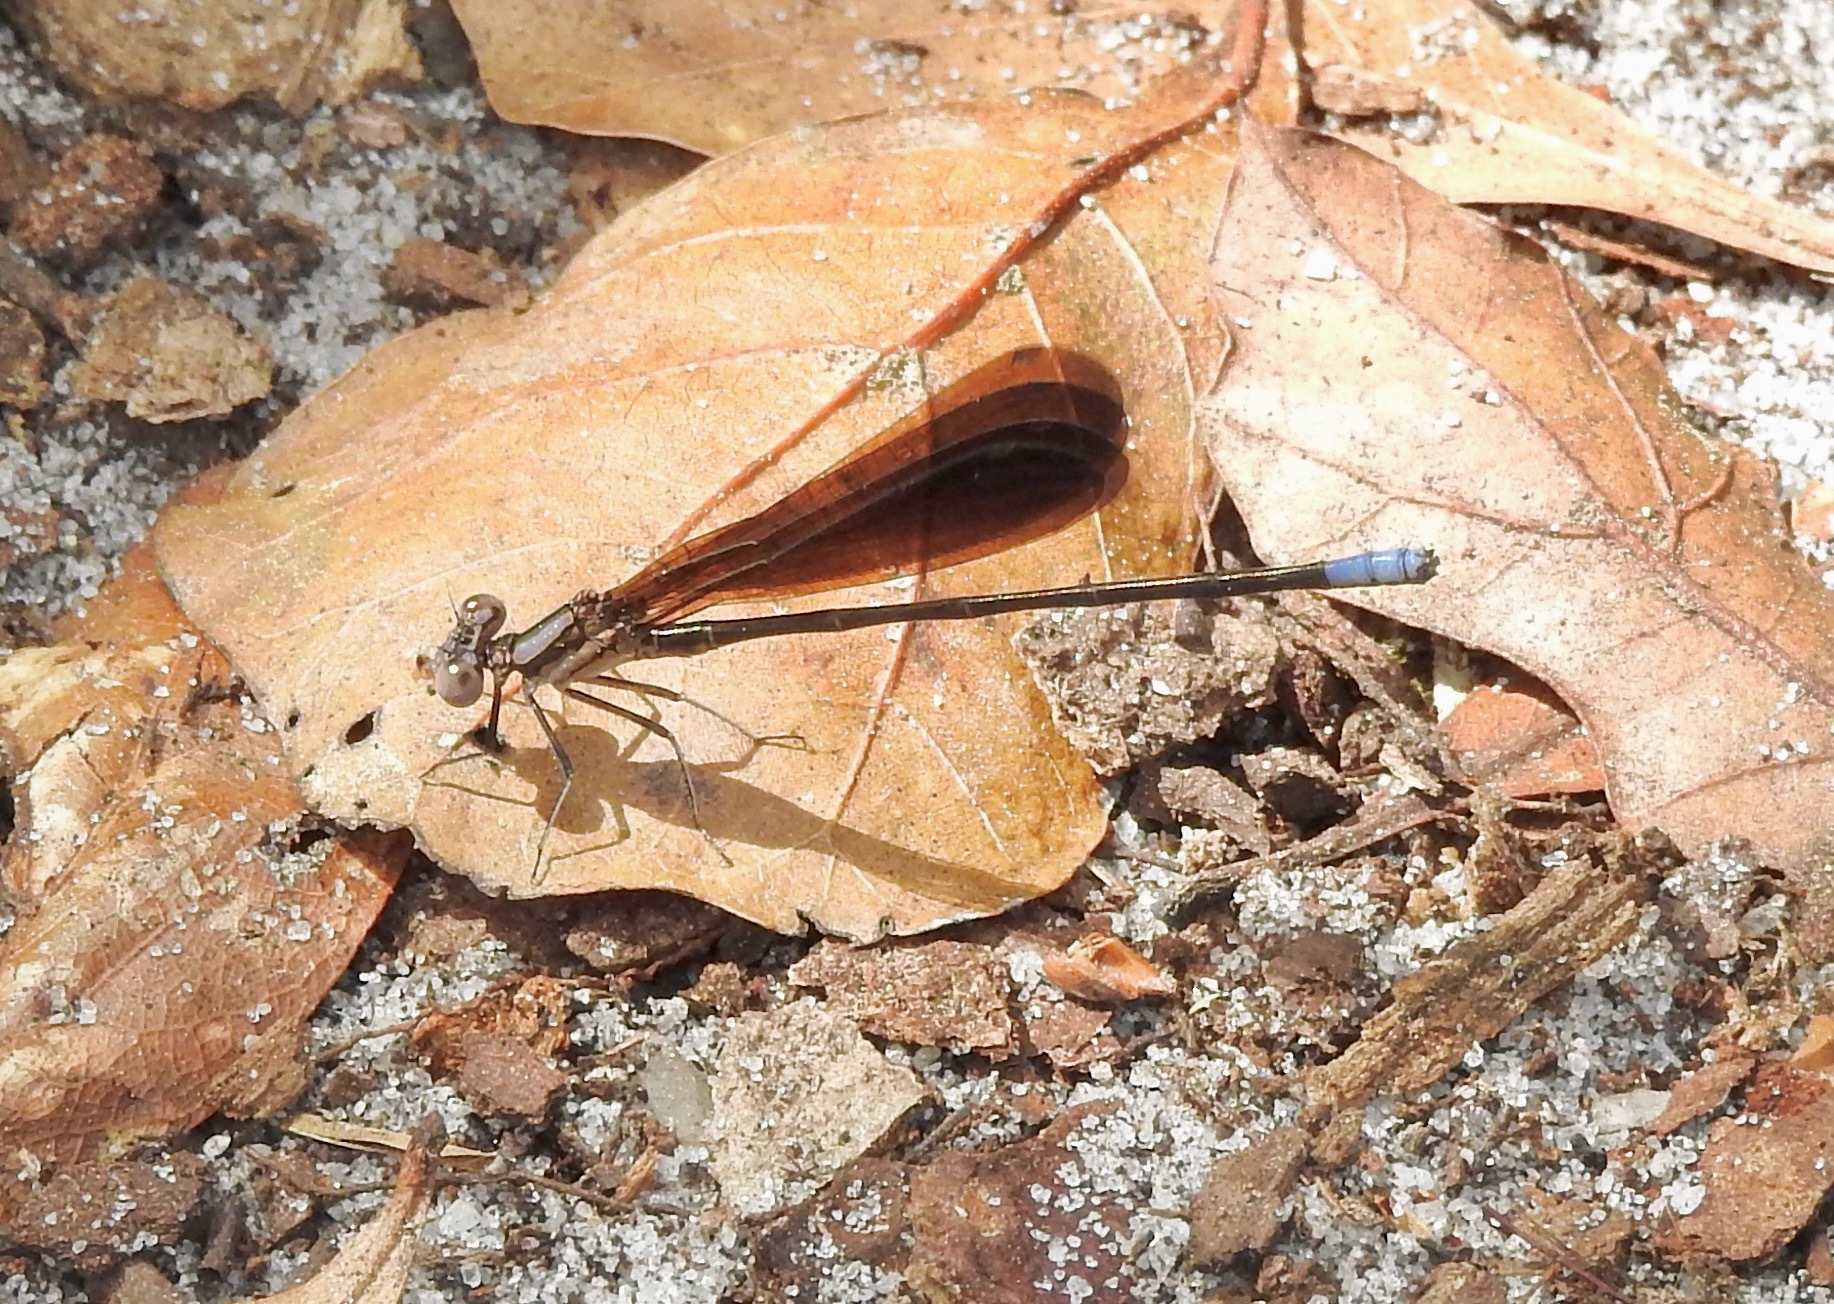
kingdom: Animalia
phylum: Arthropoda
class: Insecta
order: Odonata
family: Coenagrionidae
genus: Argia
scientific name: Argia fumipennis
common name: Variable dancer
